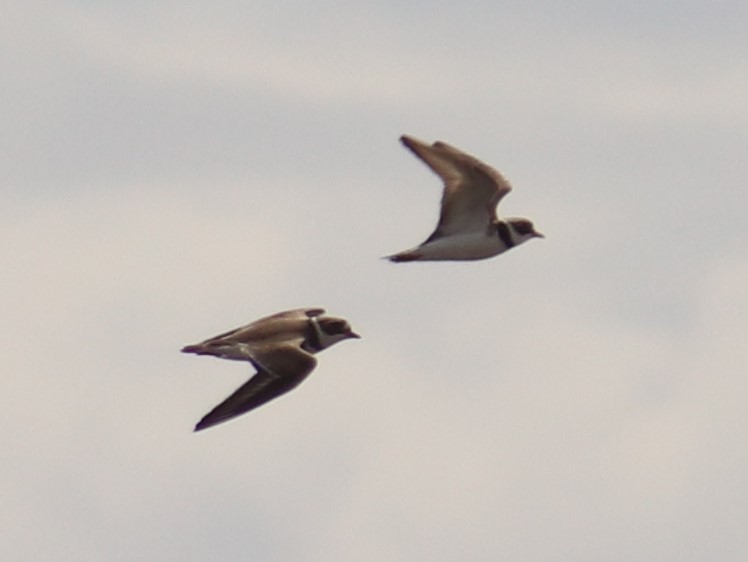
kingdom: Animalia
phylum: Chordata
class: Aves
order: Charadriiformes
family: Charadriidae
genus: Charadrius
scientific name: Charadrius semipalmatus
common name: Semipalmated plover
